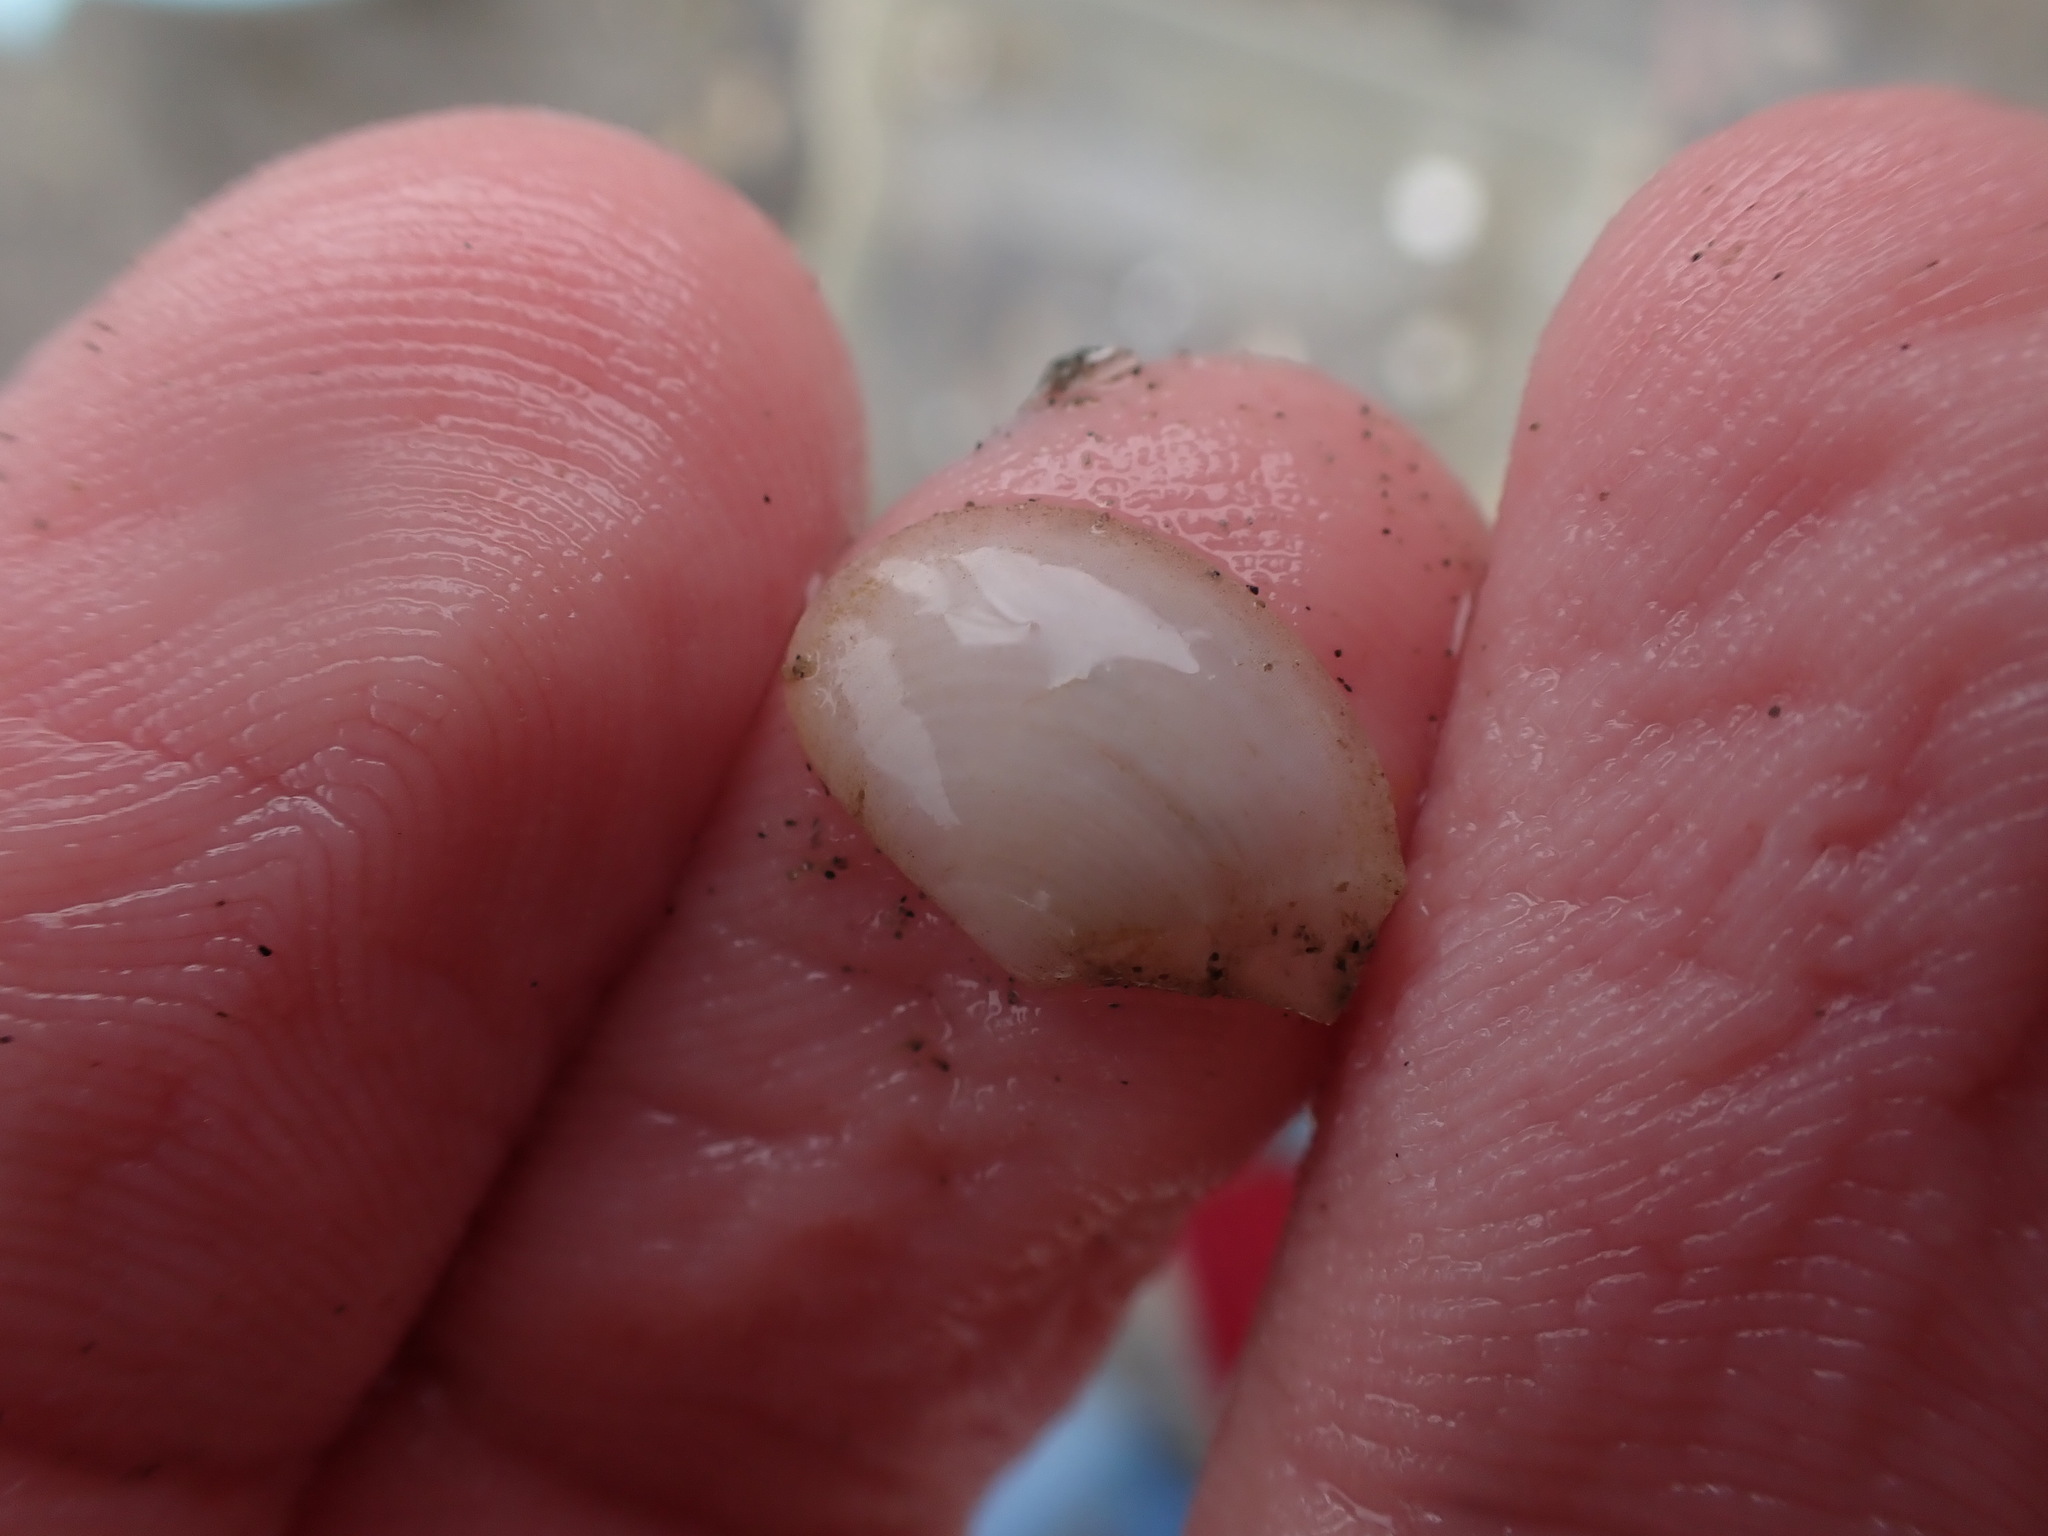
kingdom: Animalia
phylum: Mollusca
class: Bivalvia
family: Myochamidae
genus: Myadora
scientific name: Myadora boltoni
